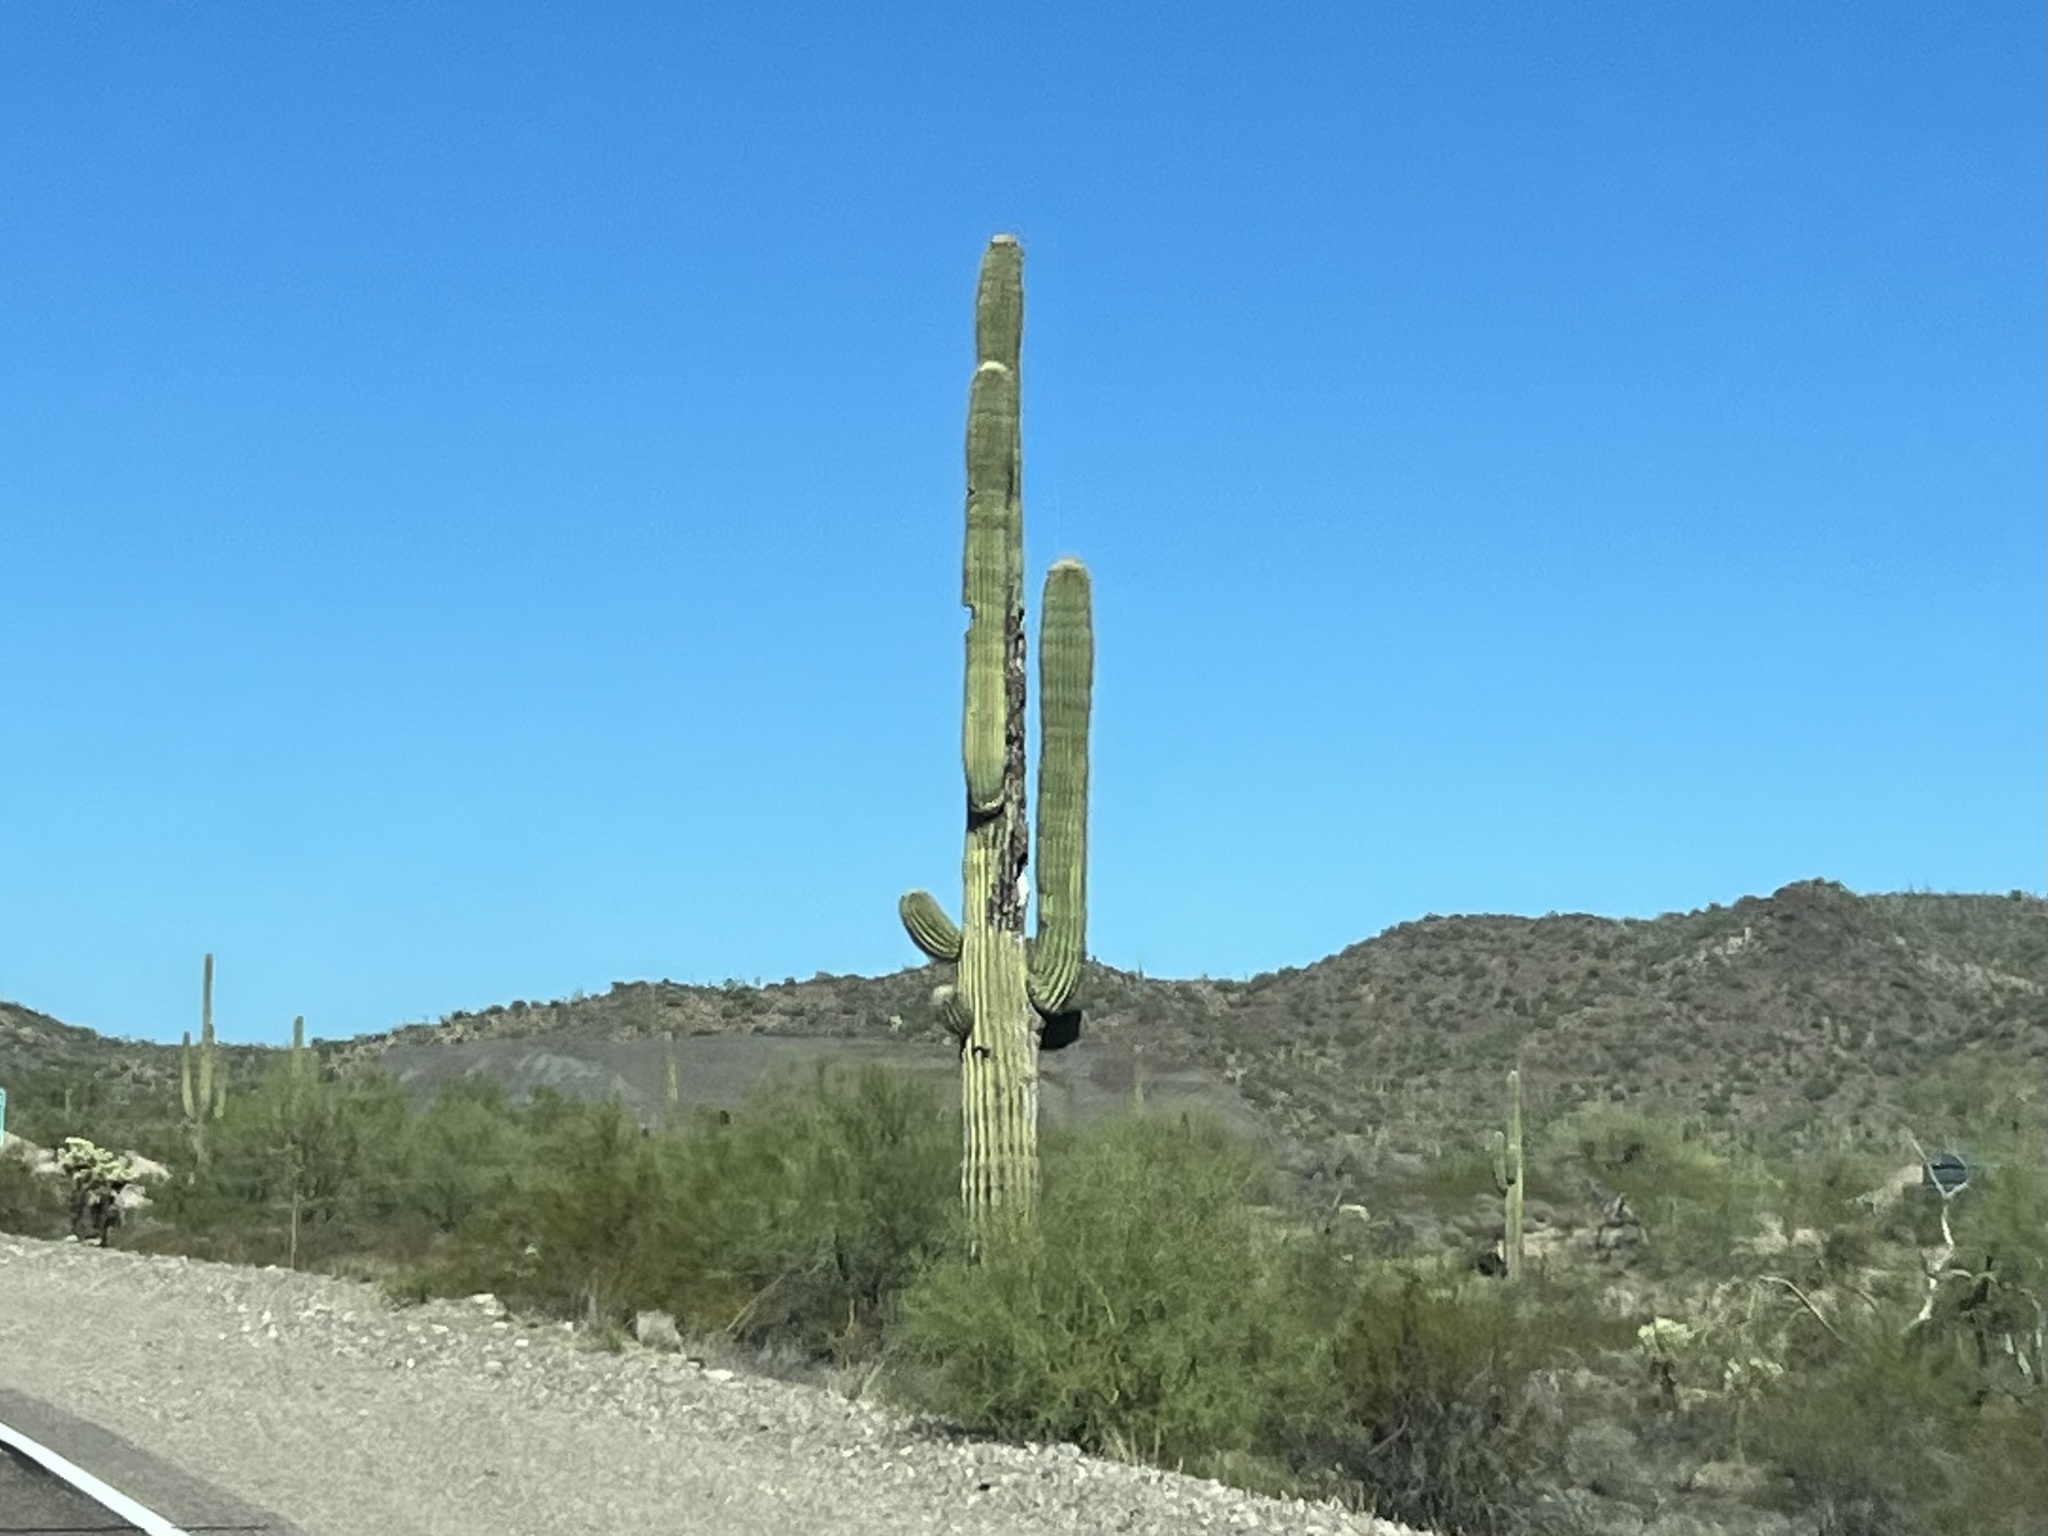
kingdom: Plantae
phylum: Tracheophyta
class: Magnoliopsida
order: Caryophyllales
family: Cactaceae
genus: Carnegiea
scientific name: Carnegiea gigantea
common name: Saguaro
